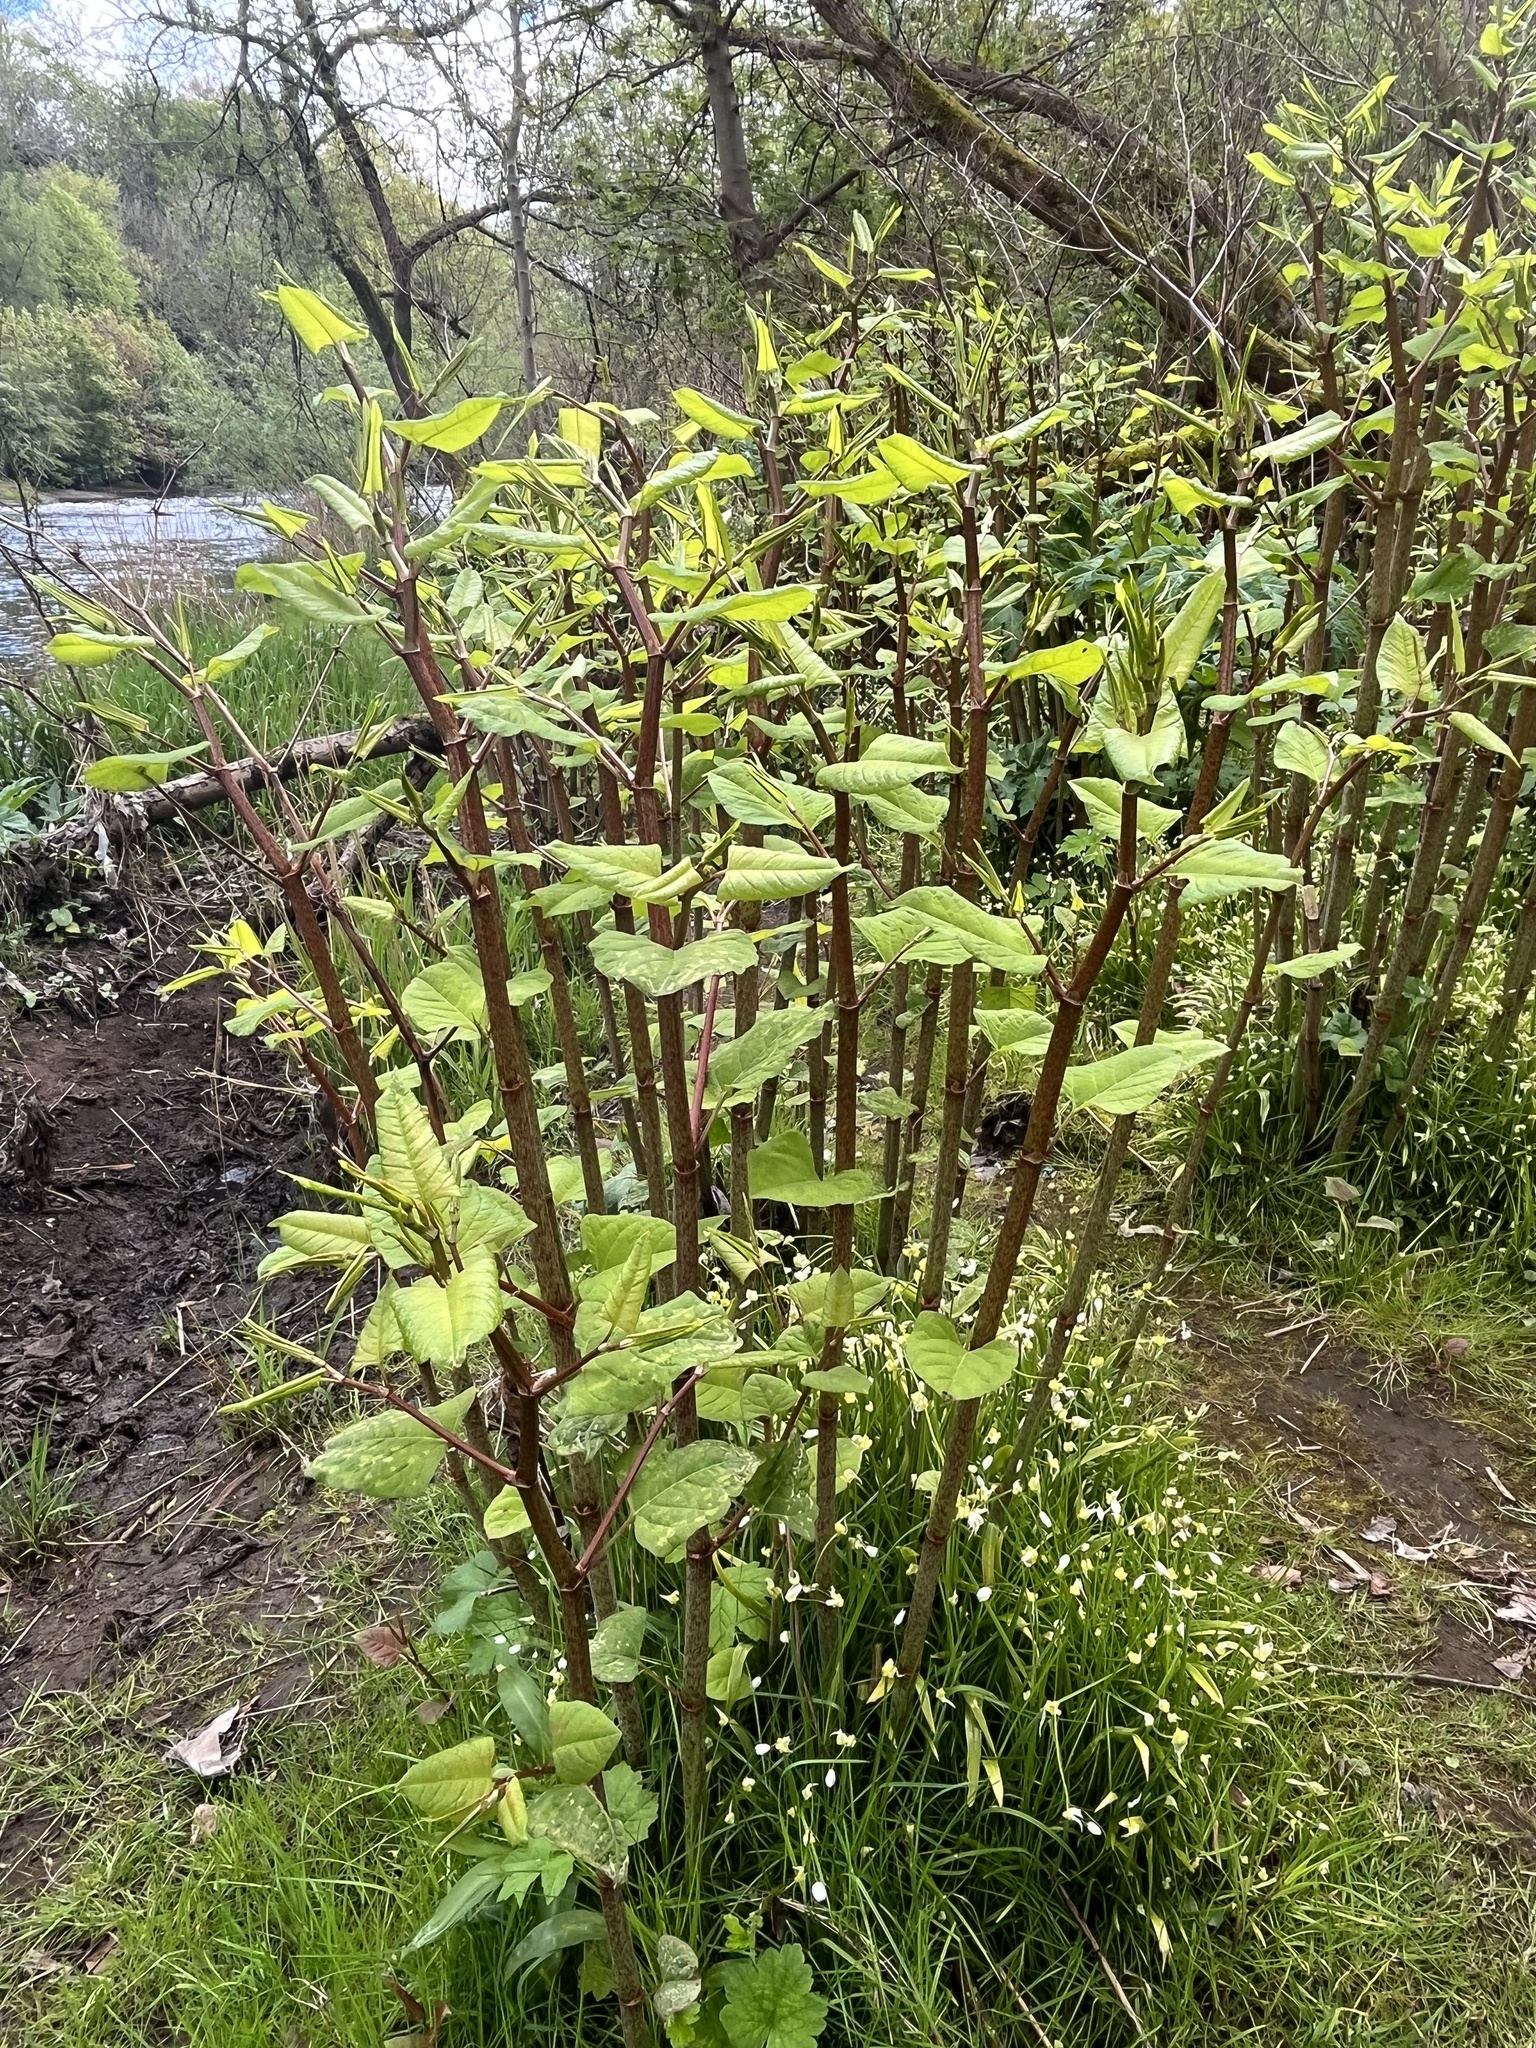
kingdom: Plantae
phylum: Tracheophyta
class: Magnoliopsida
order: Caryophyllales
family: Polygonaceae
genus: Reynoutria
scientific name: Reynoutria japonica
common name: Japanese knotweed
